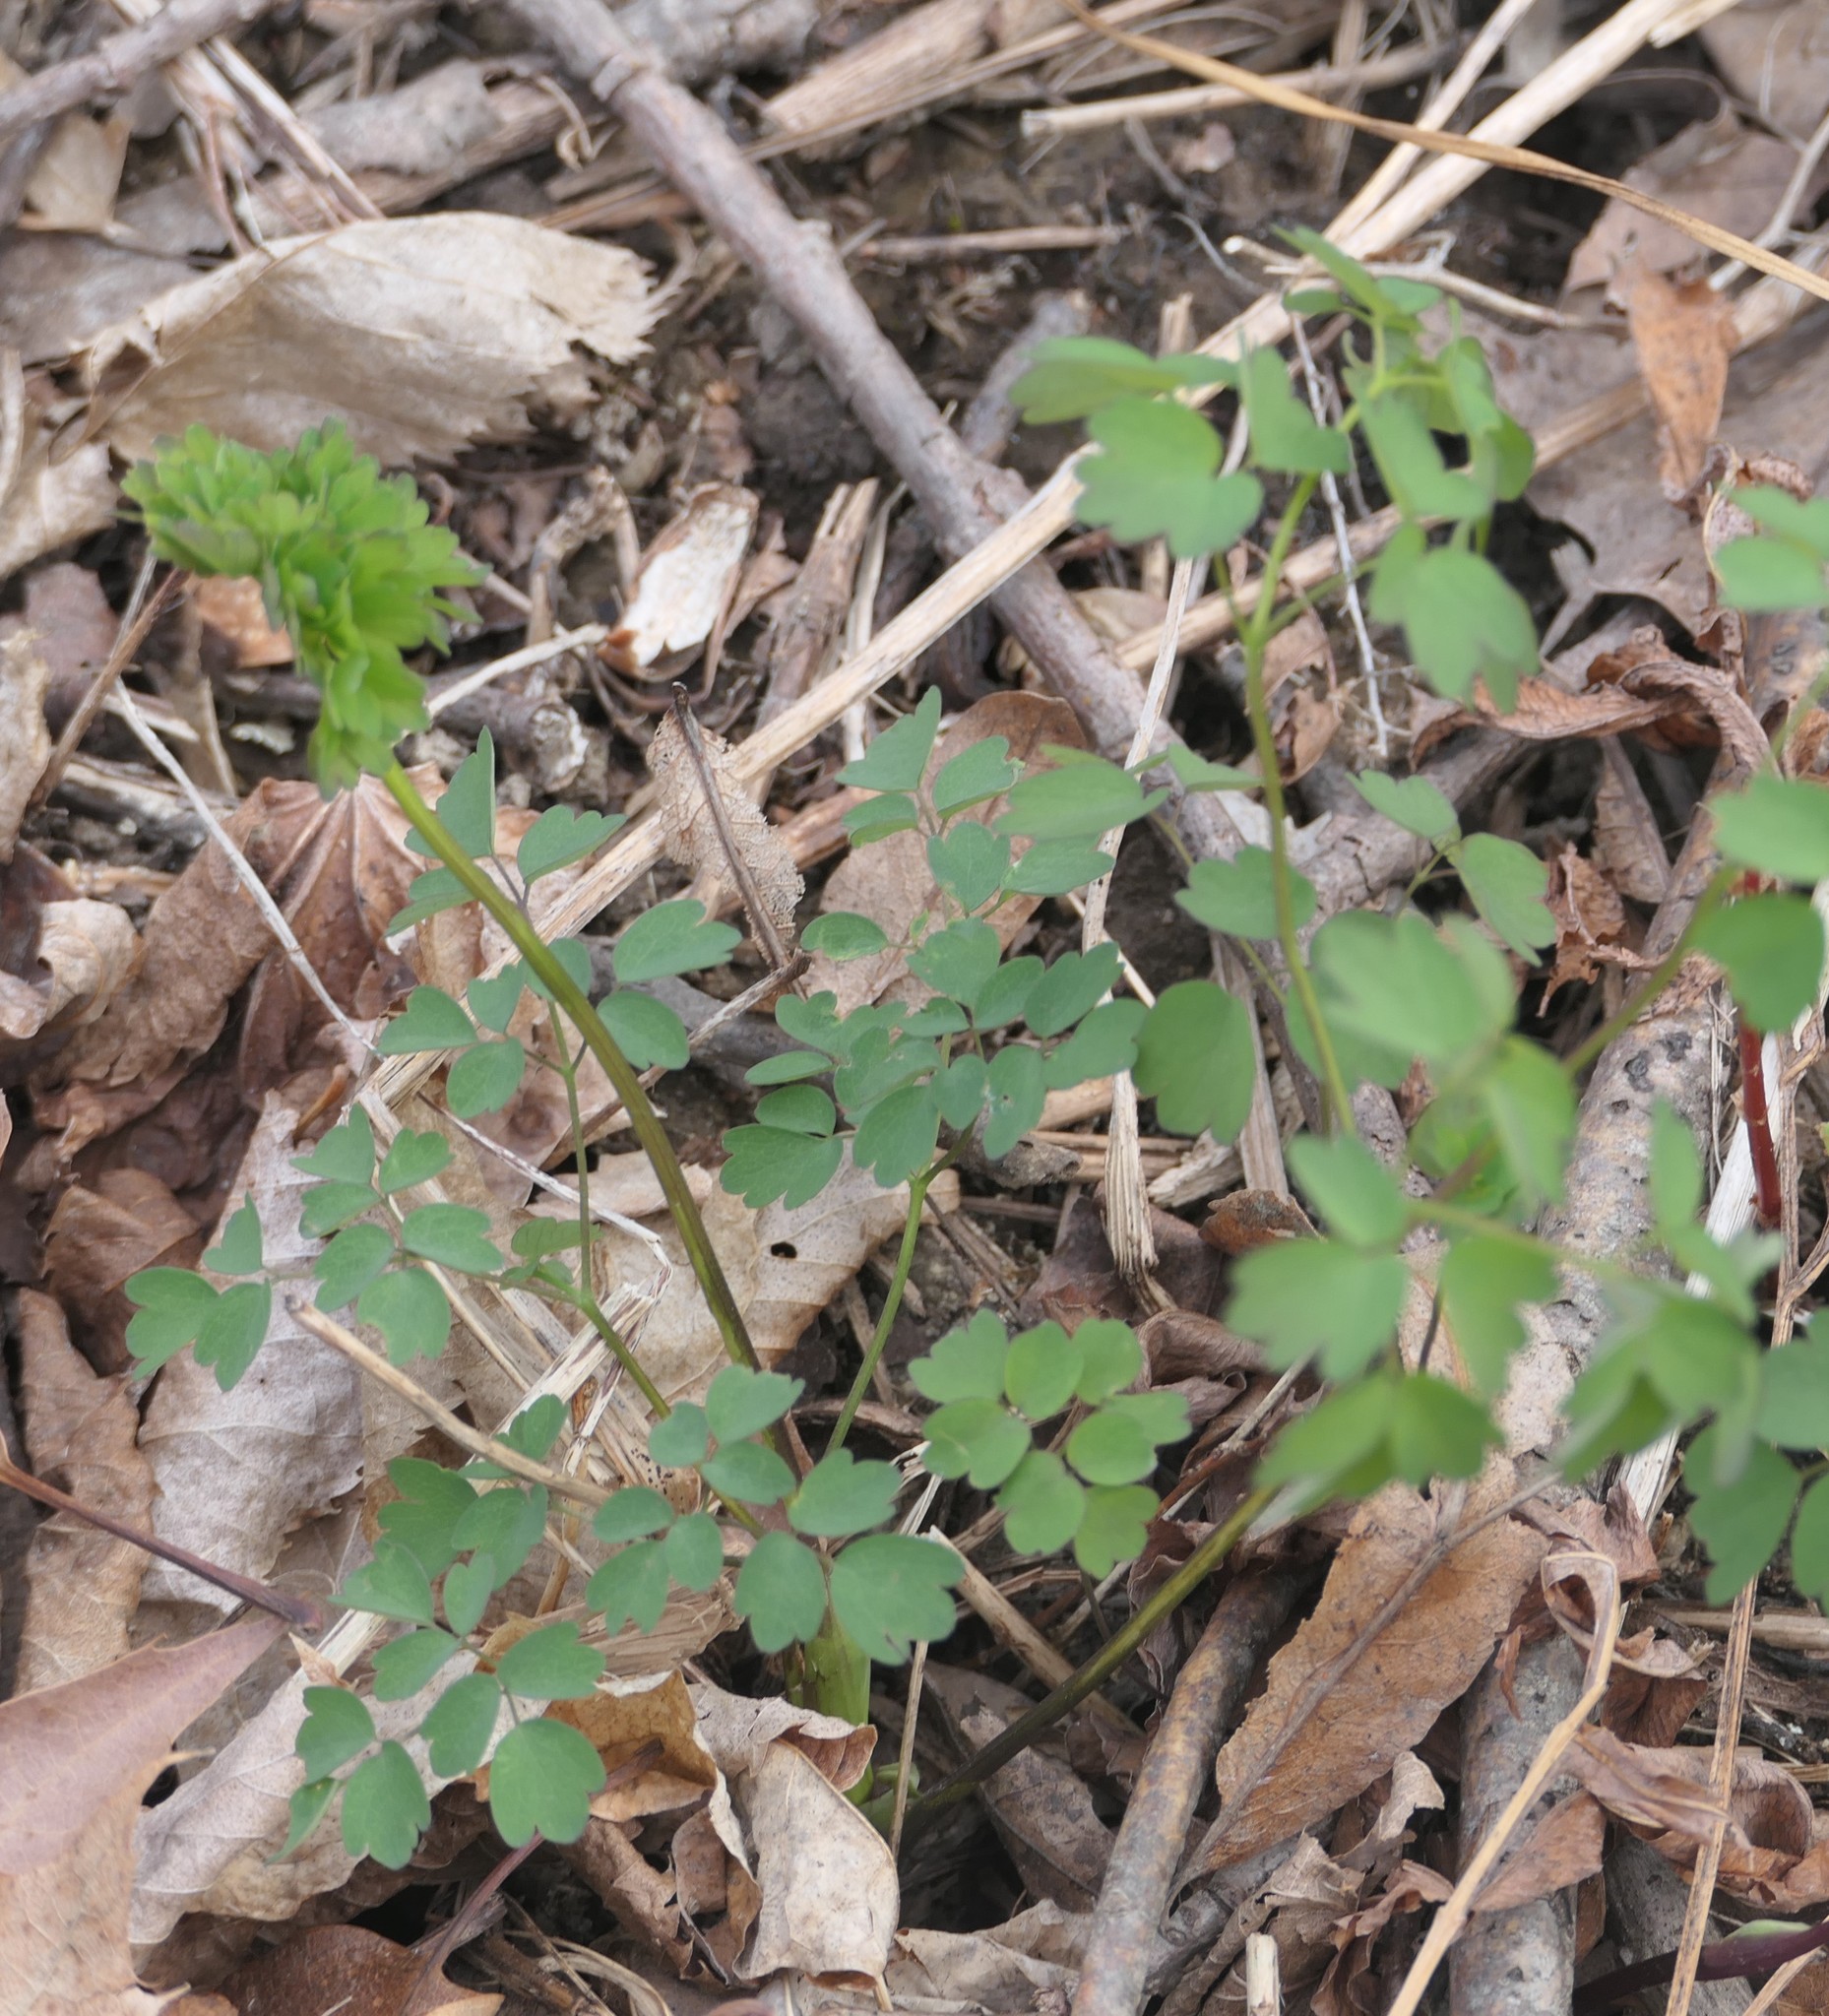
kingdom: Plantae
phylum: Tracheophyta
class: Magnoliopsida
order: Ranunculales
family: Ranunculaceae
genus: Thalictrum
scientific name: Thalictrum pubescens
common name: King-of-the-meadow
